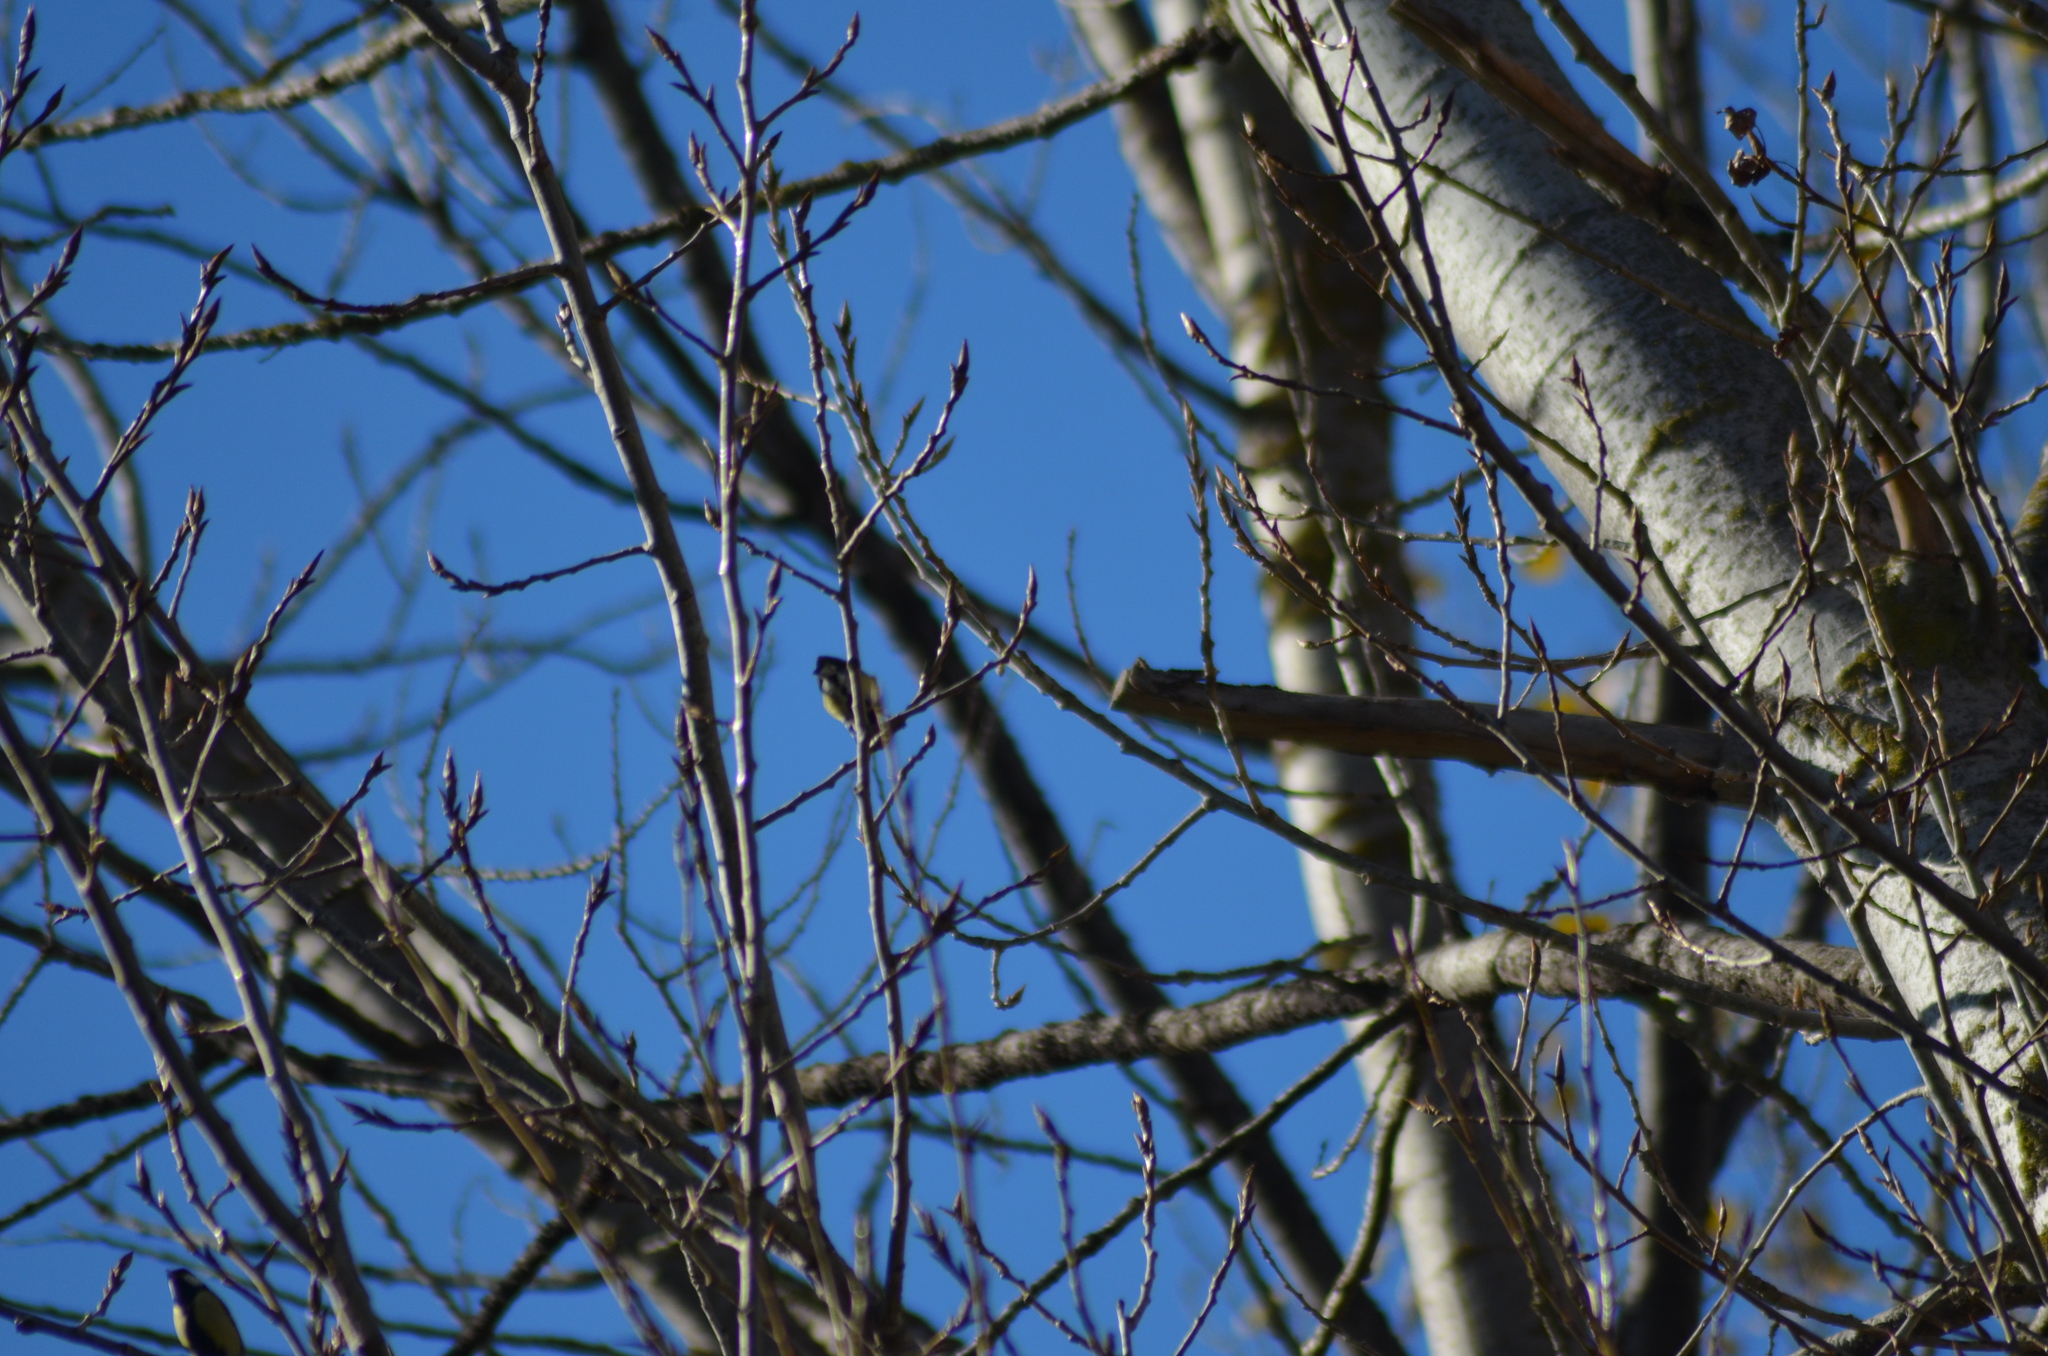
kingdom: Animalia
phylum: Chordata
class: Aves
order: Passeriformes
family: Paridae
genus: Parus
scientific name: Parus major
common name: Great tit
